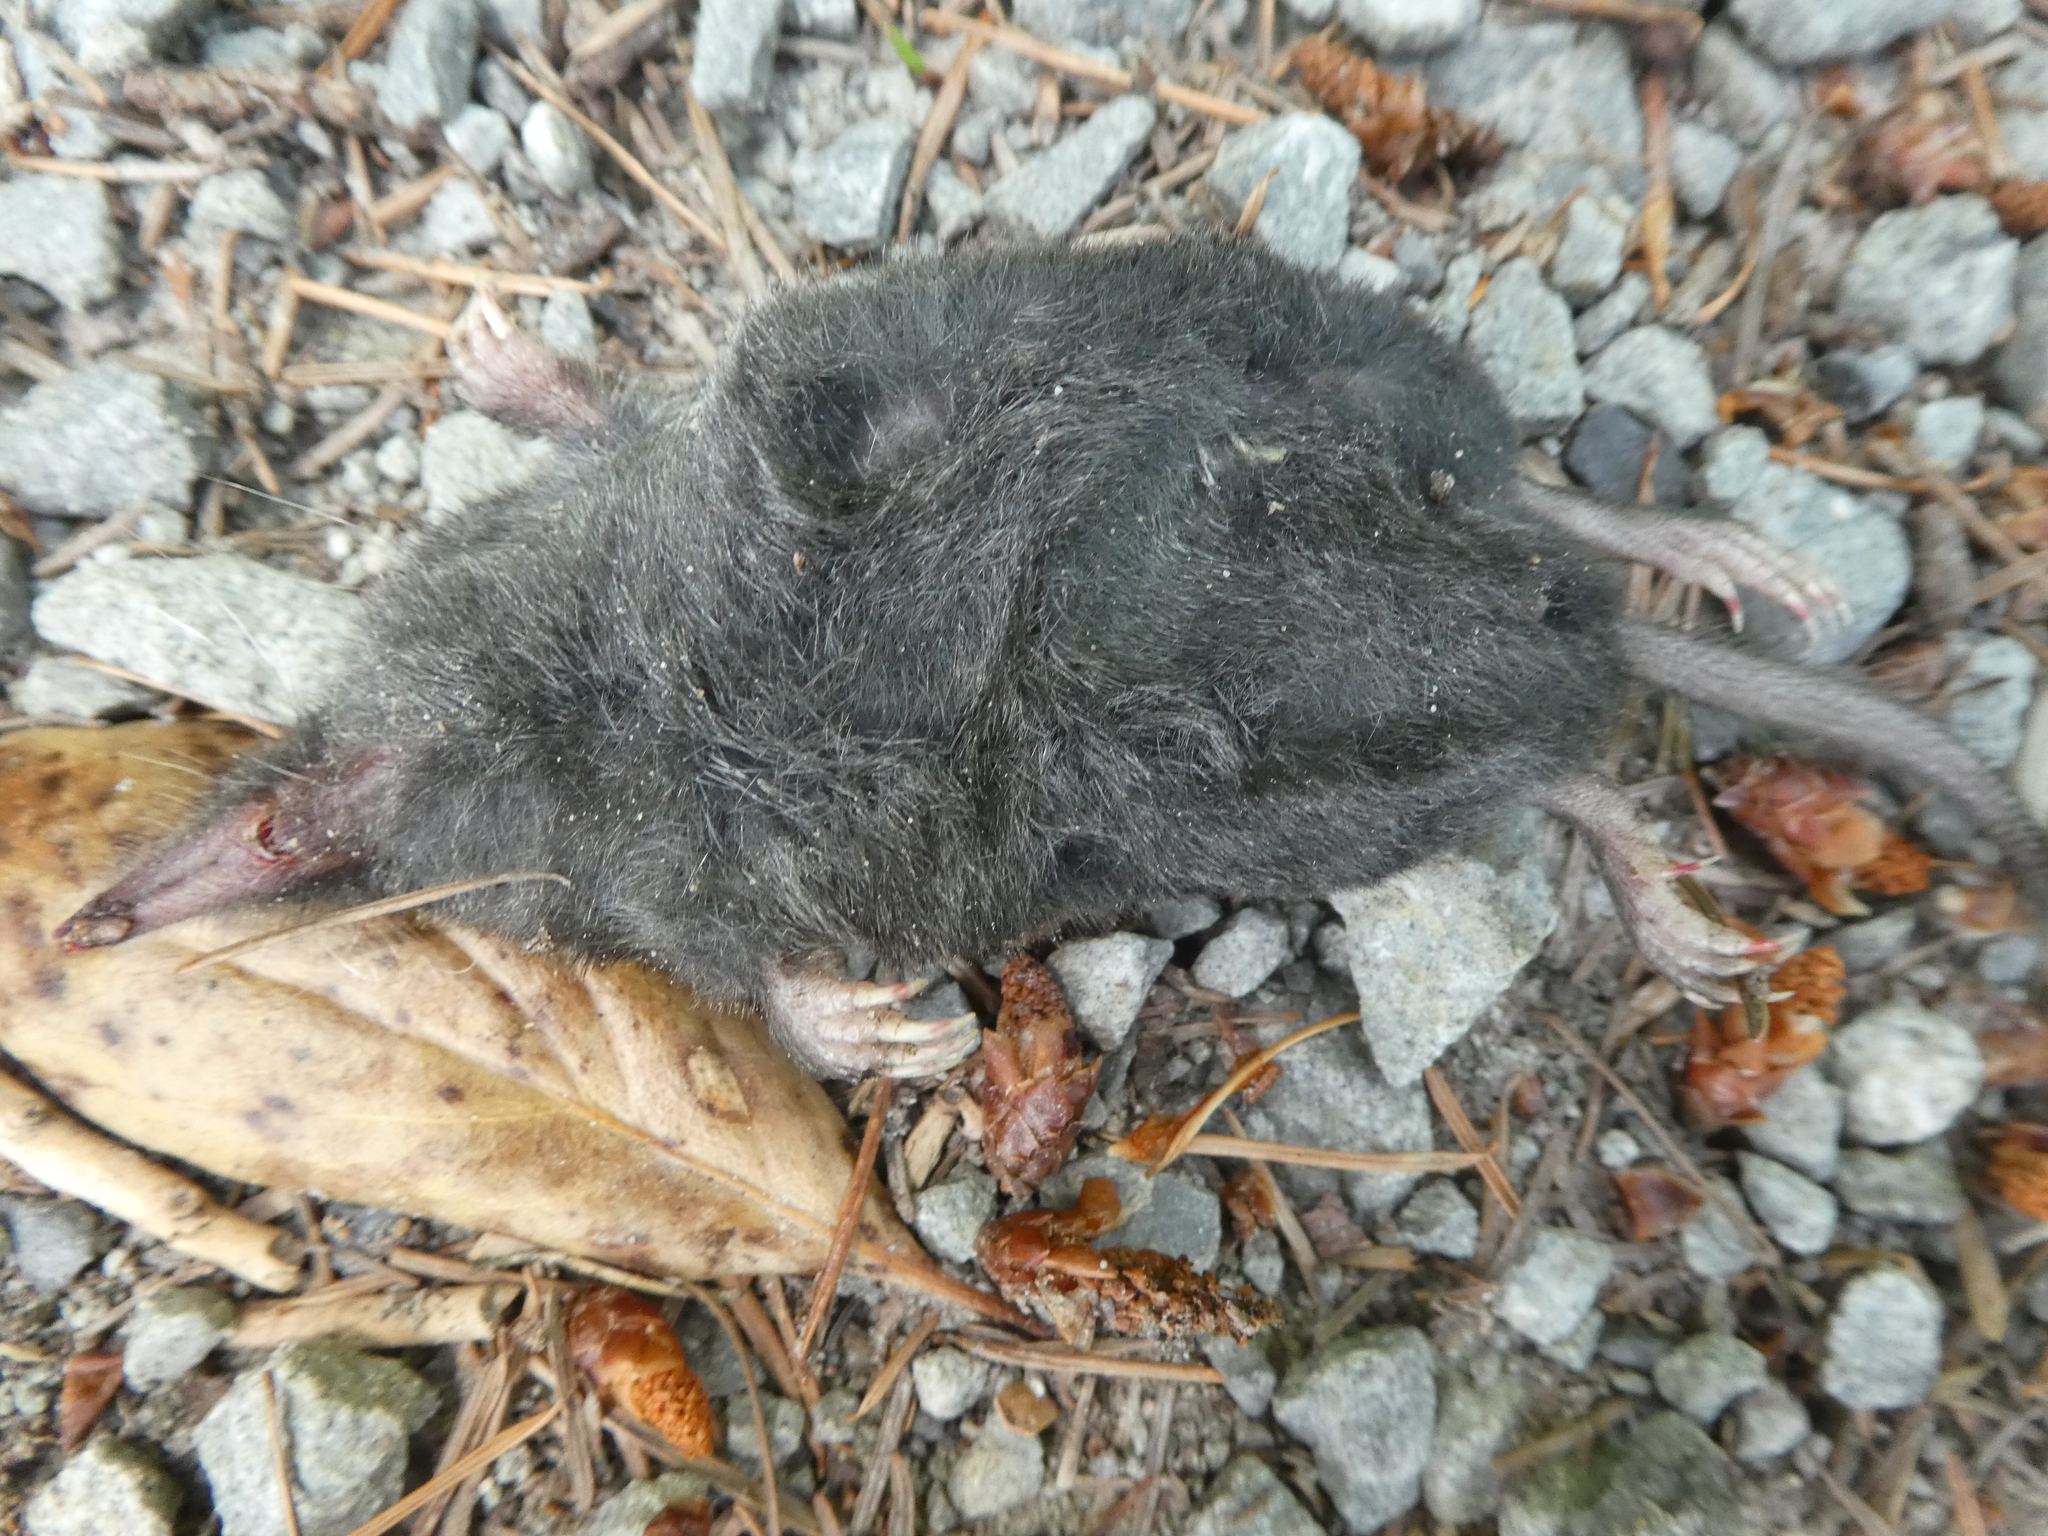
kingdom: Animalia
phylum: Chordata
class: Mammalia
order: Soricomorpha
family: Talpidae
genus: Neurotrichus
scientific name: Neurotrichus gibbsii
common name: American shrew mole
